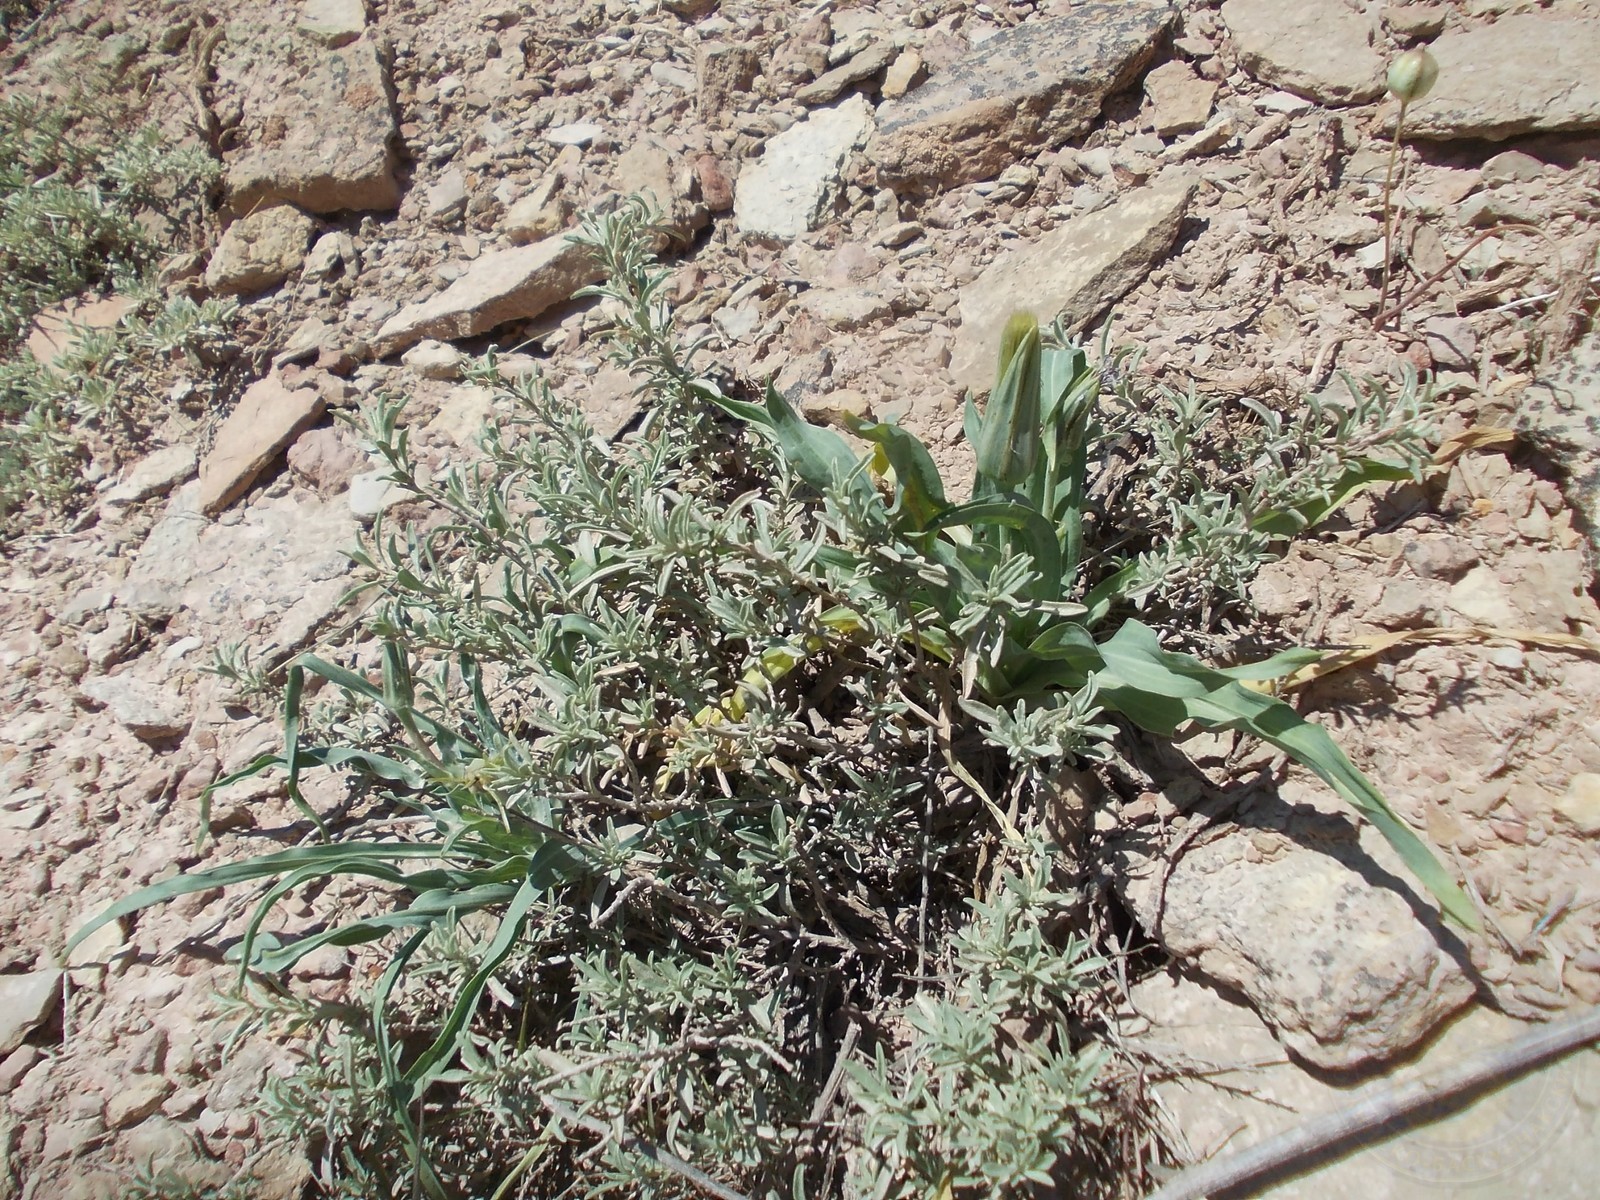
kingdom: Plantae
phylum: Tracheophyta
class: Magnoliopsida
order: Caryophyllales
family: Amaranthaceae
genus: Atriplex
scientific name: Atriplex cana
